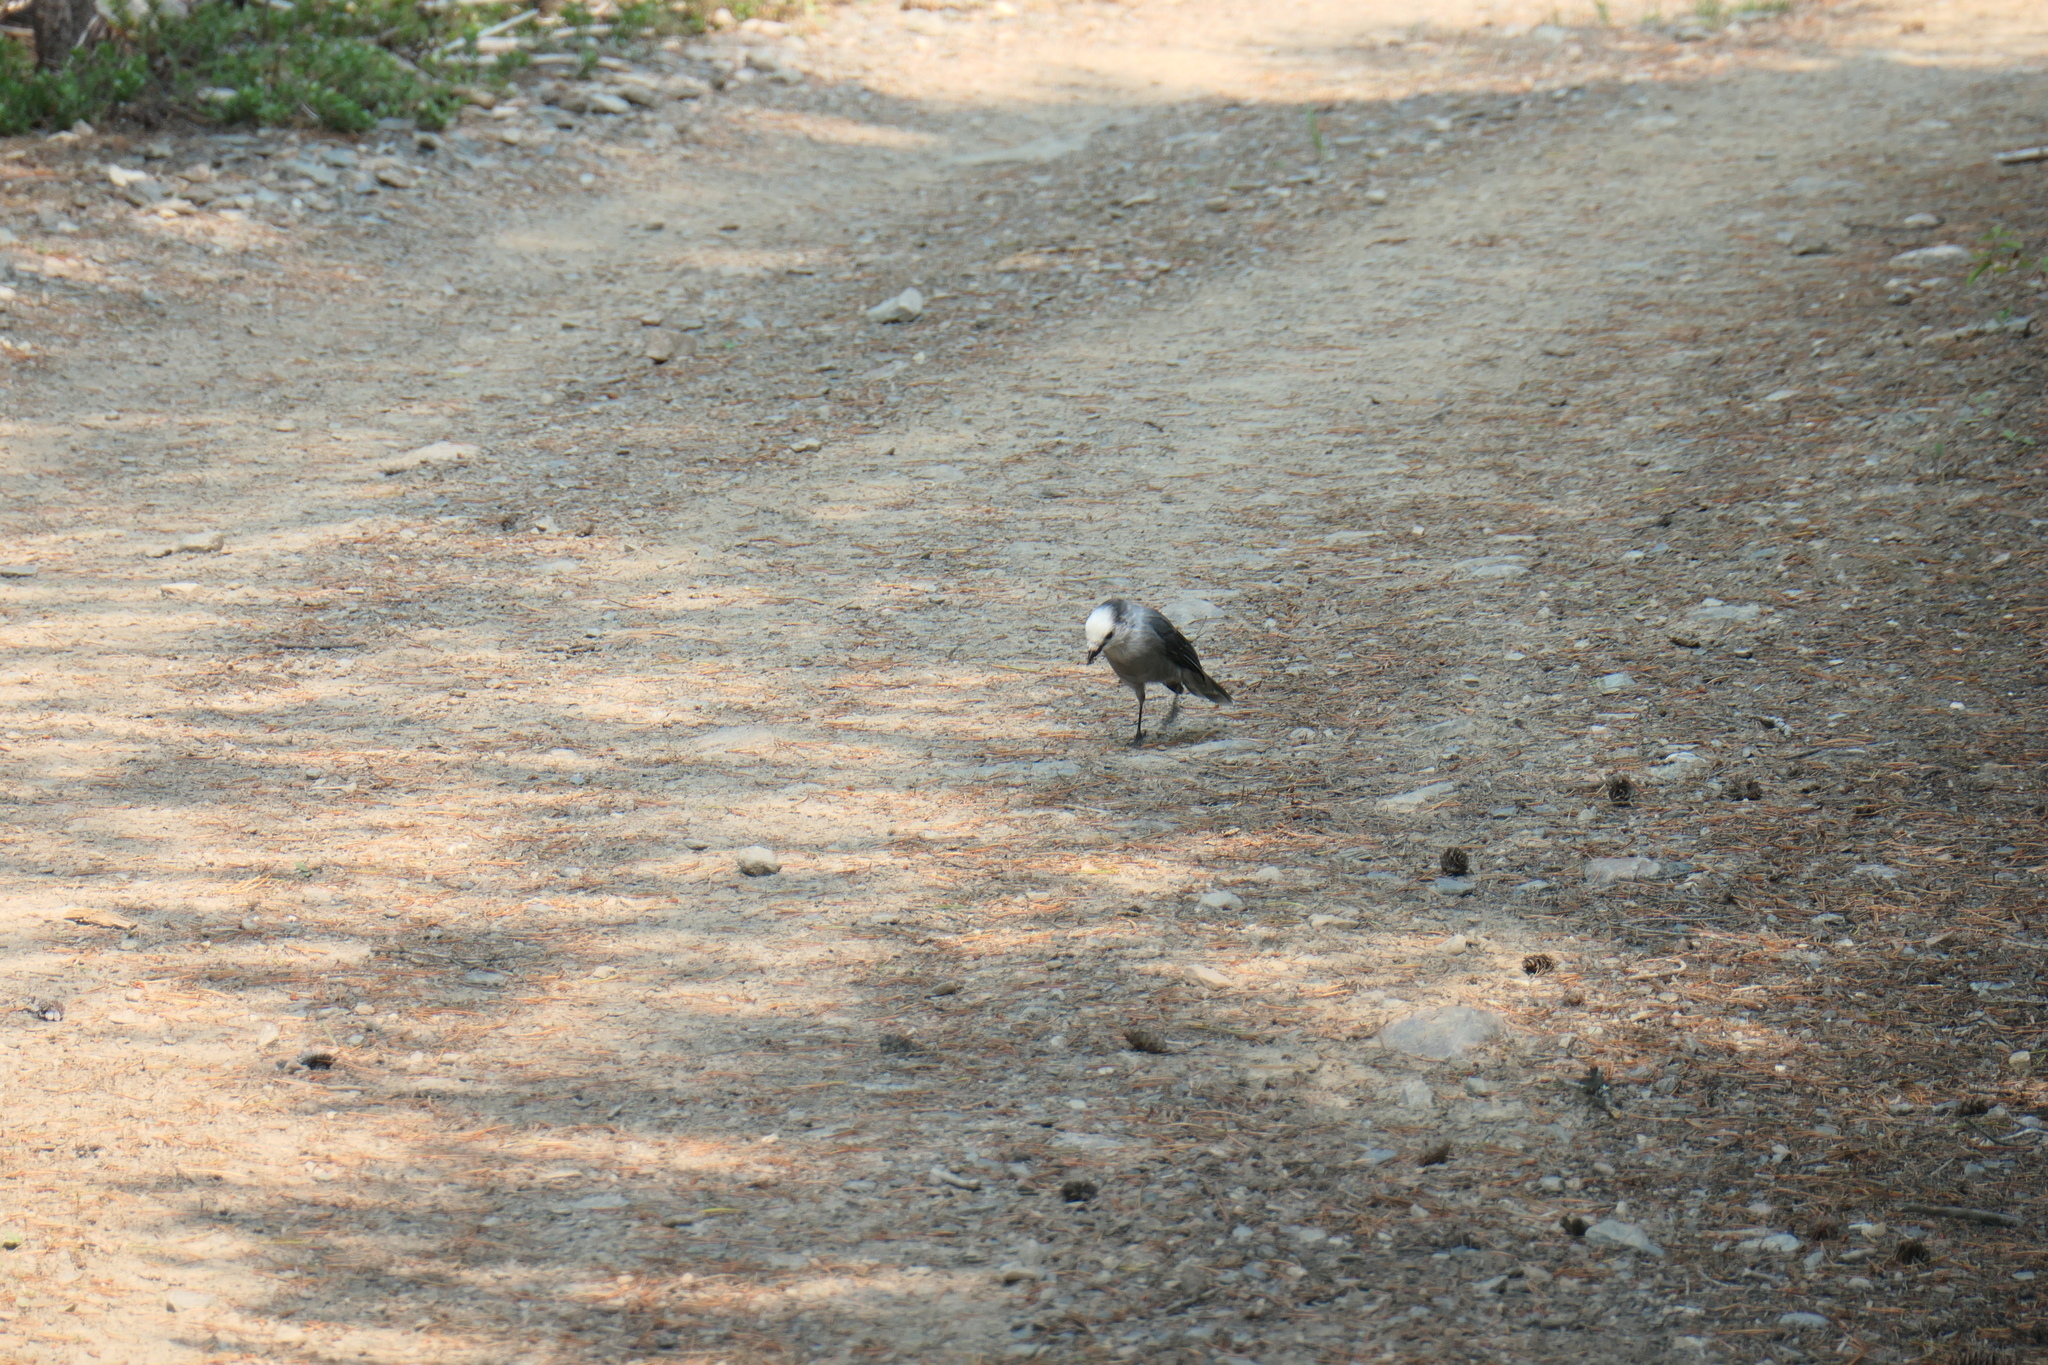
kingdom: Animalia
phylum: Chordata
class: Aves
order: Passeriformes
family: Corvidae
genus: Perisoreus
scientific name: Perisoreus canadensis
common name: Gray jay
